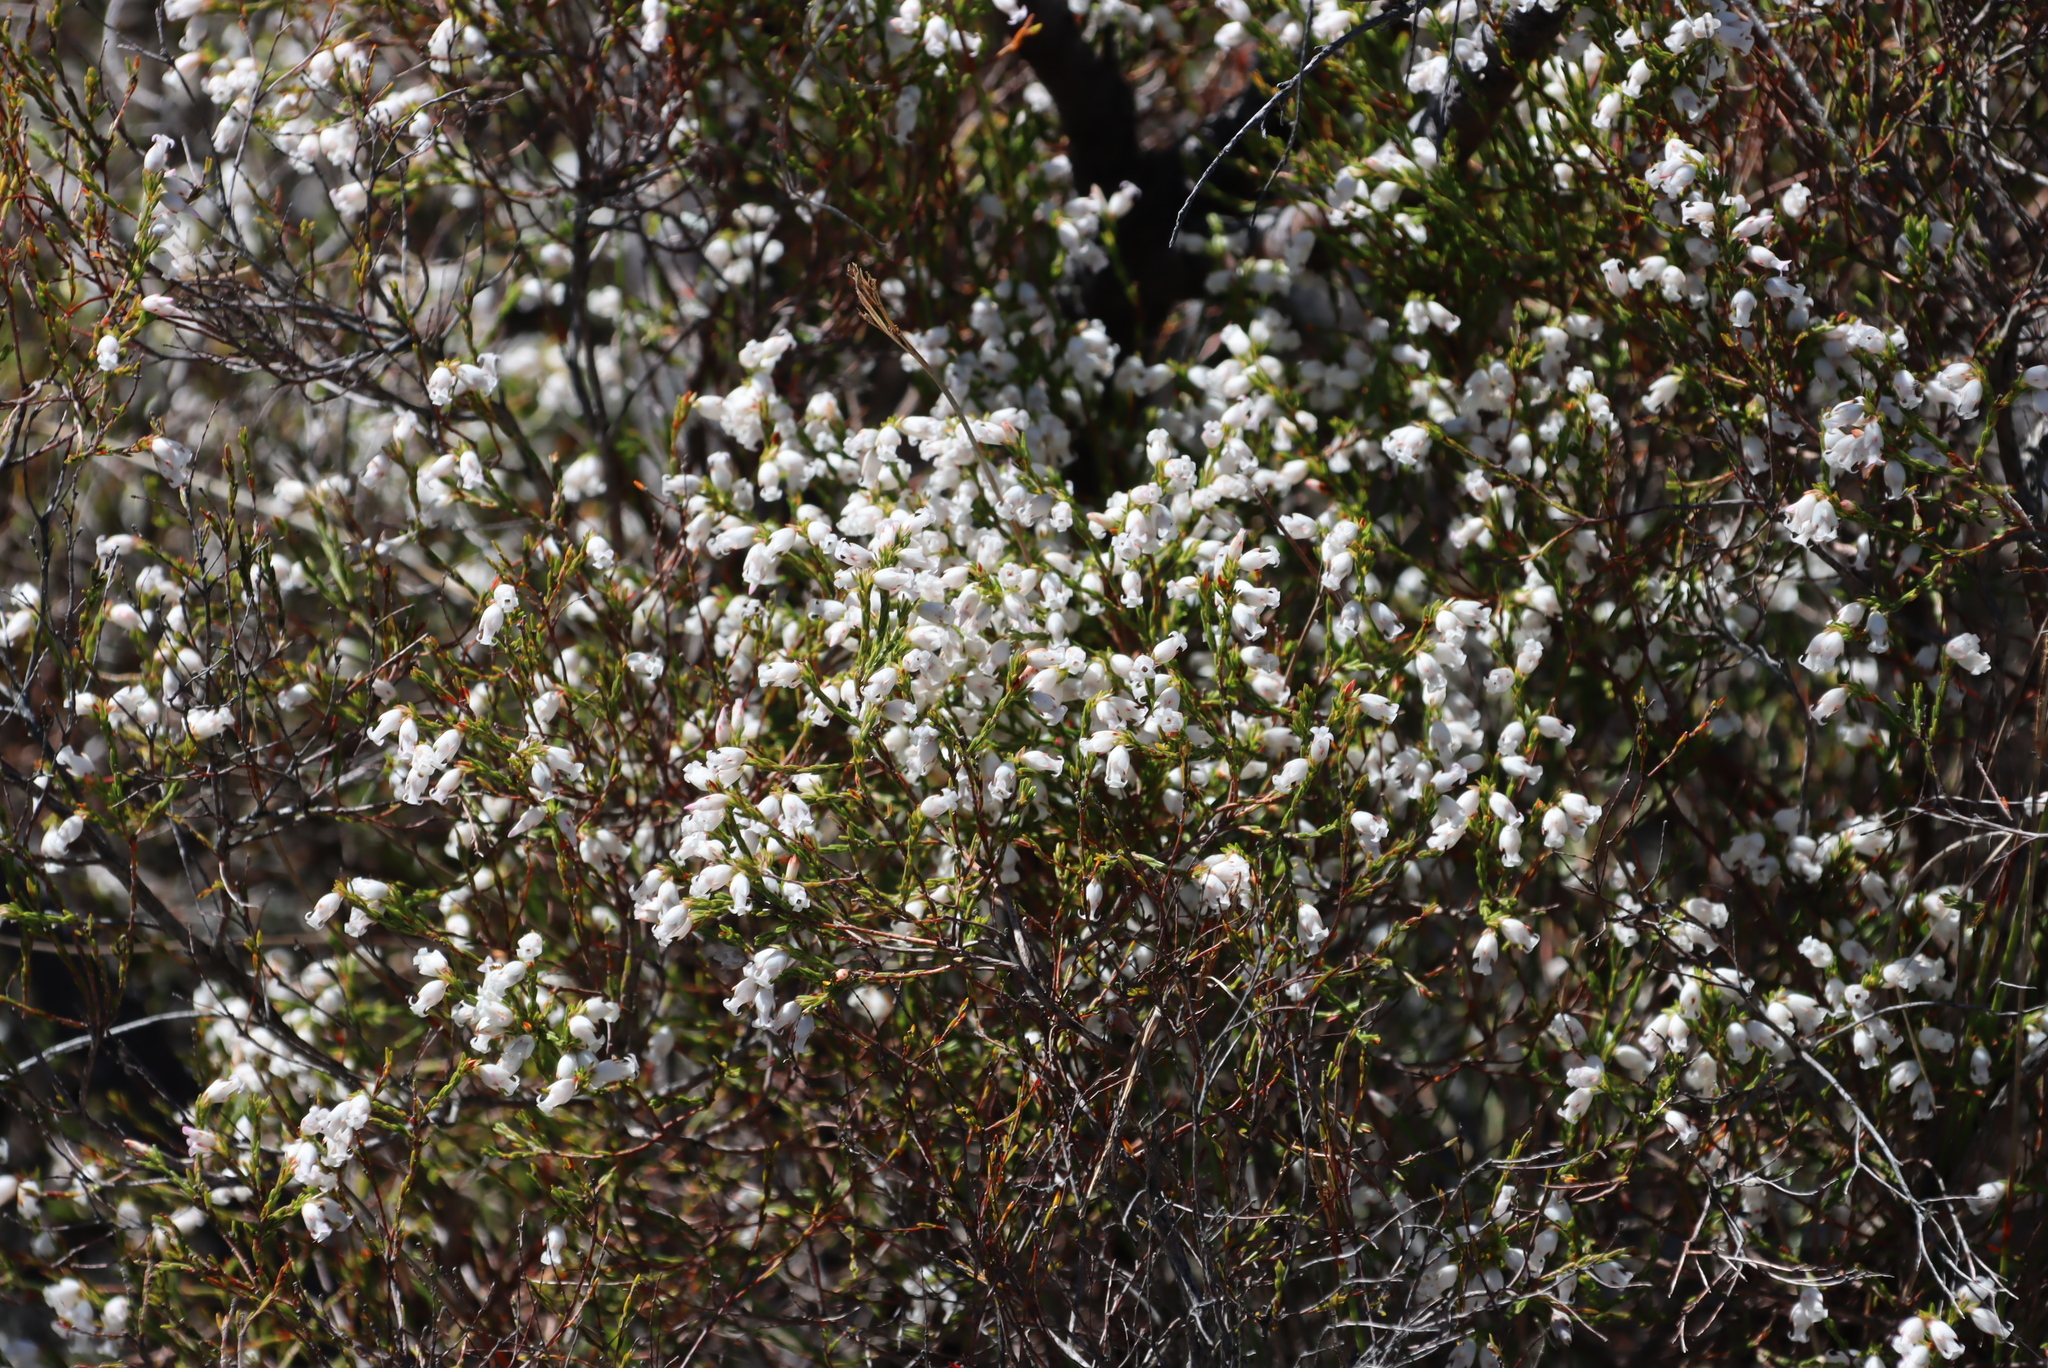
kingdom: Plantae
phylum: Tracheophyta
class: Magnoliopsida
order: Ericales
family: Ericaceae
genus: Erica
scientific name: Erica lutea
